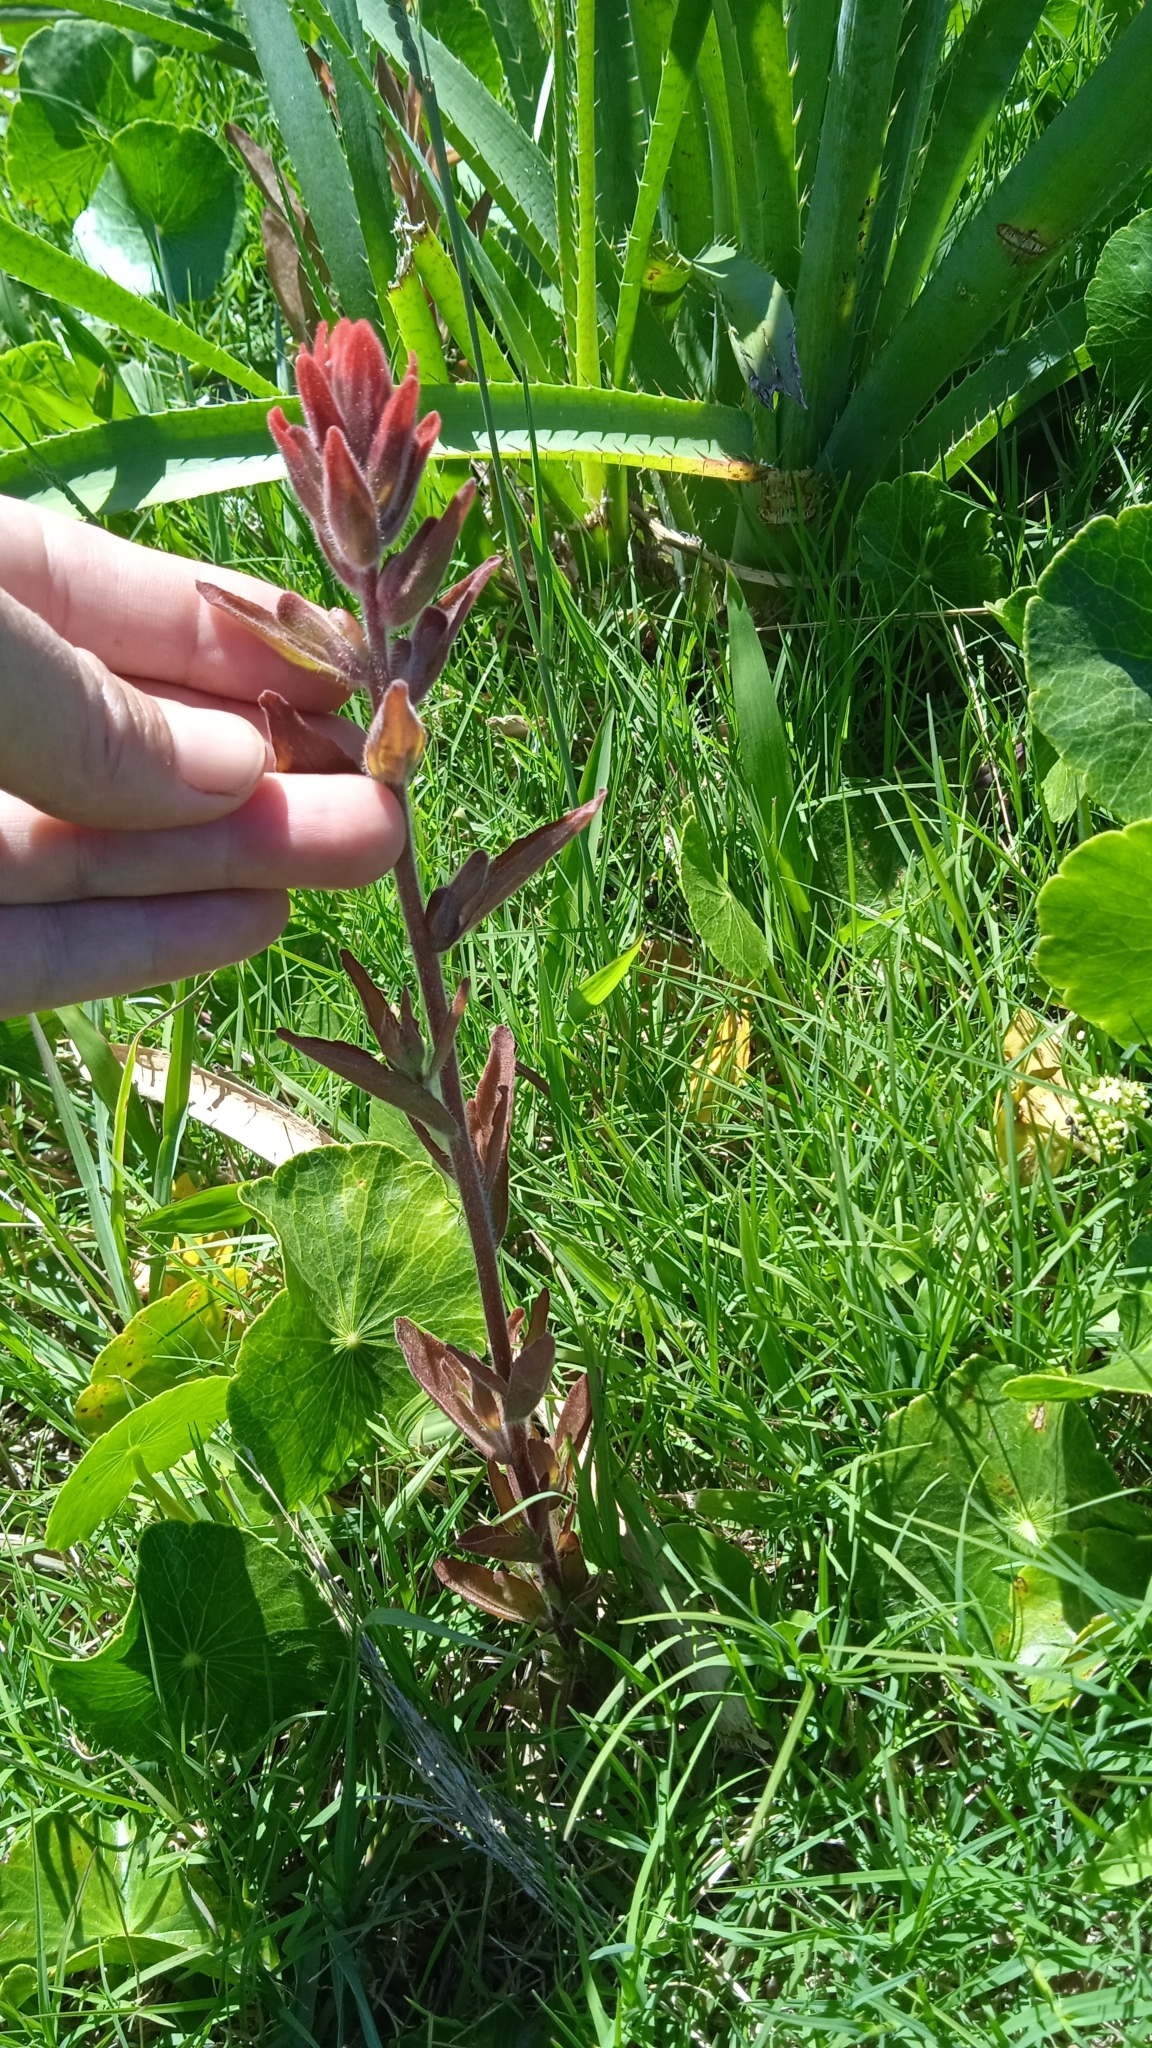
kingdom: Plantae
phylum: Tracheophyta
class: Magnoliopsida
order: Lamiales
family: Orobanchaceae
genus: Castilleja
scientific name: Castilleja arvensis
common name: Indian paintbrush
